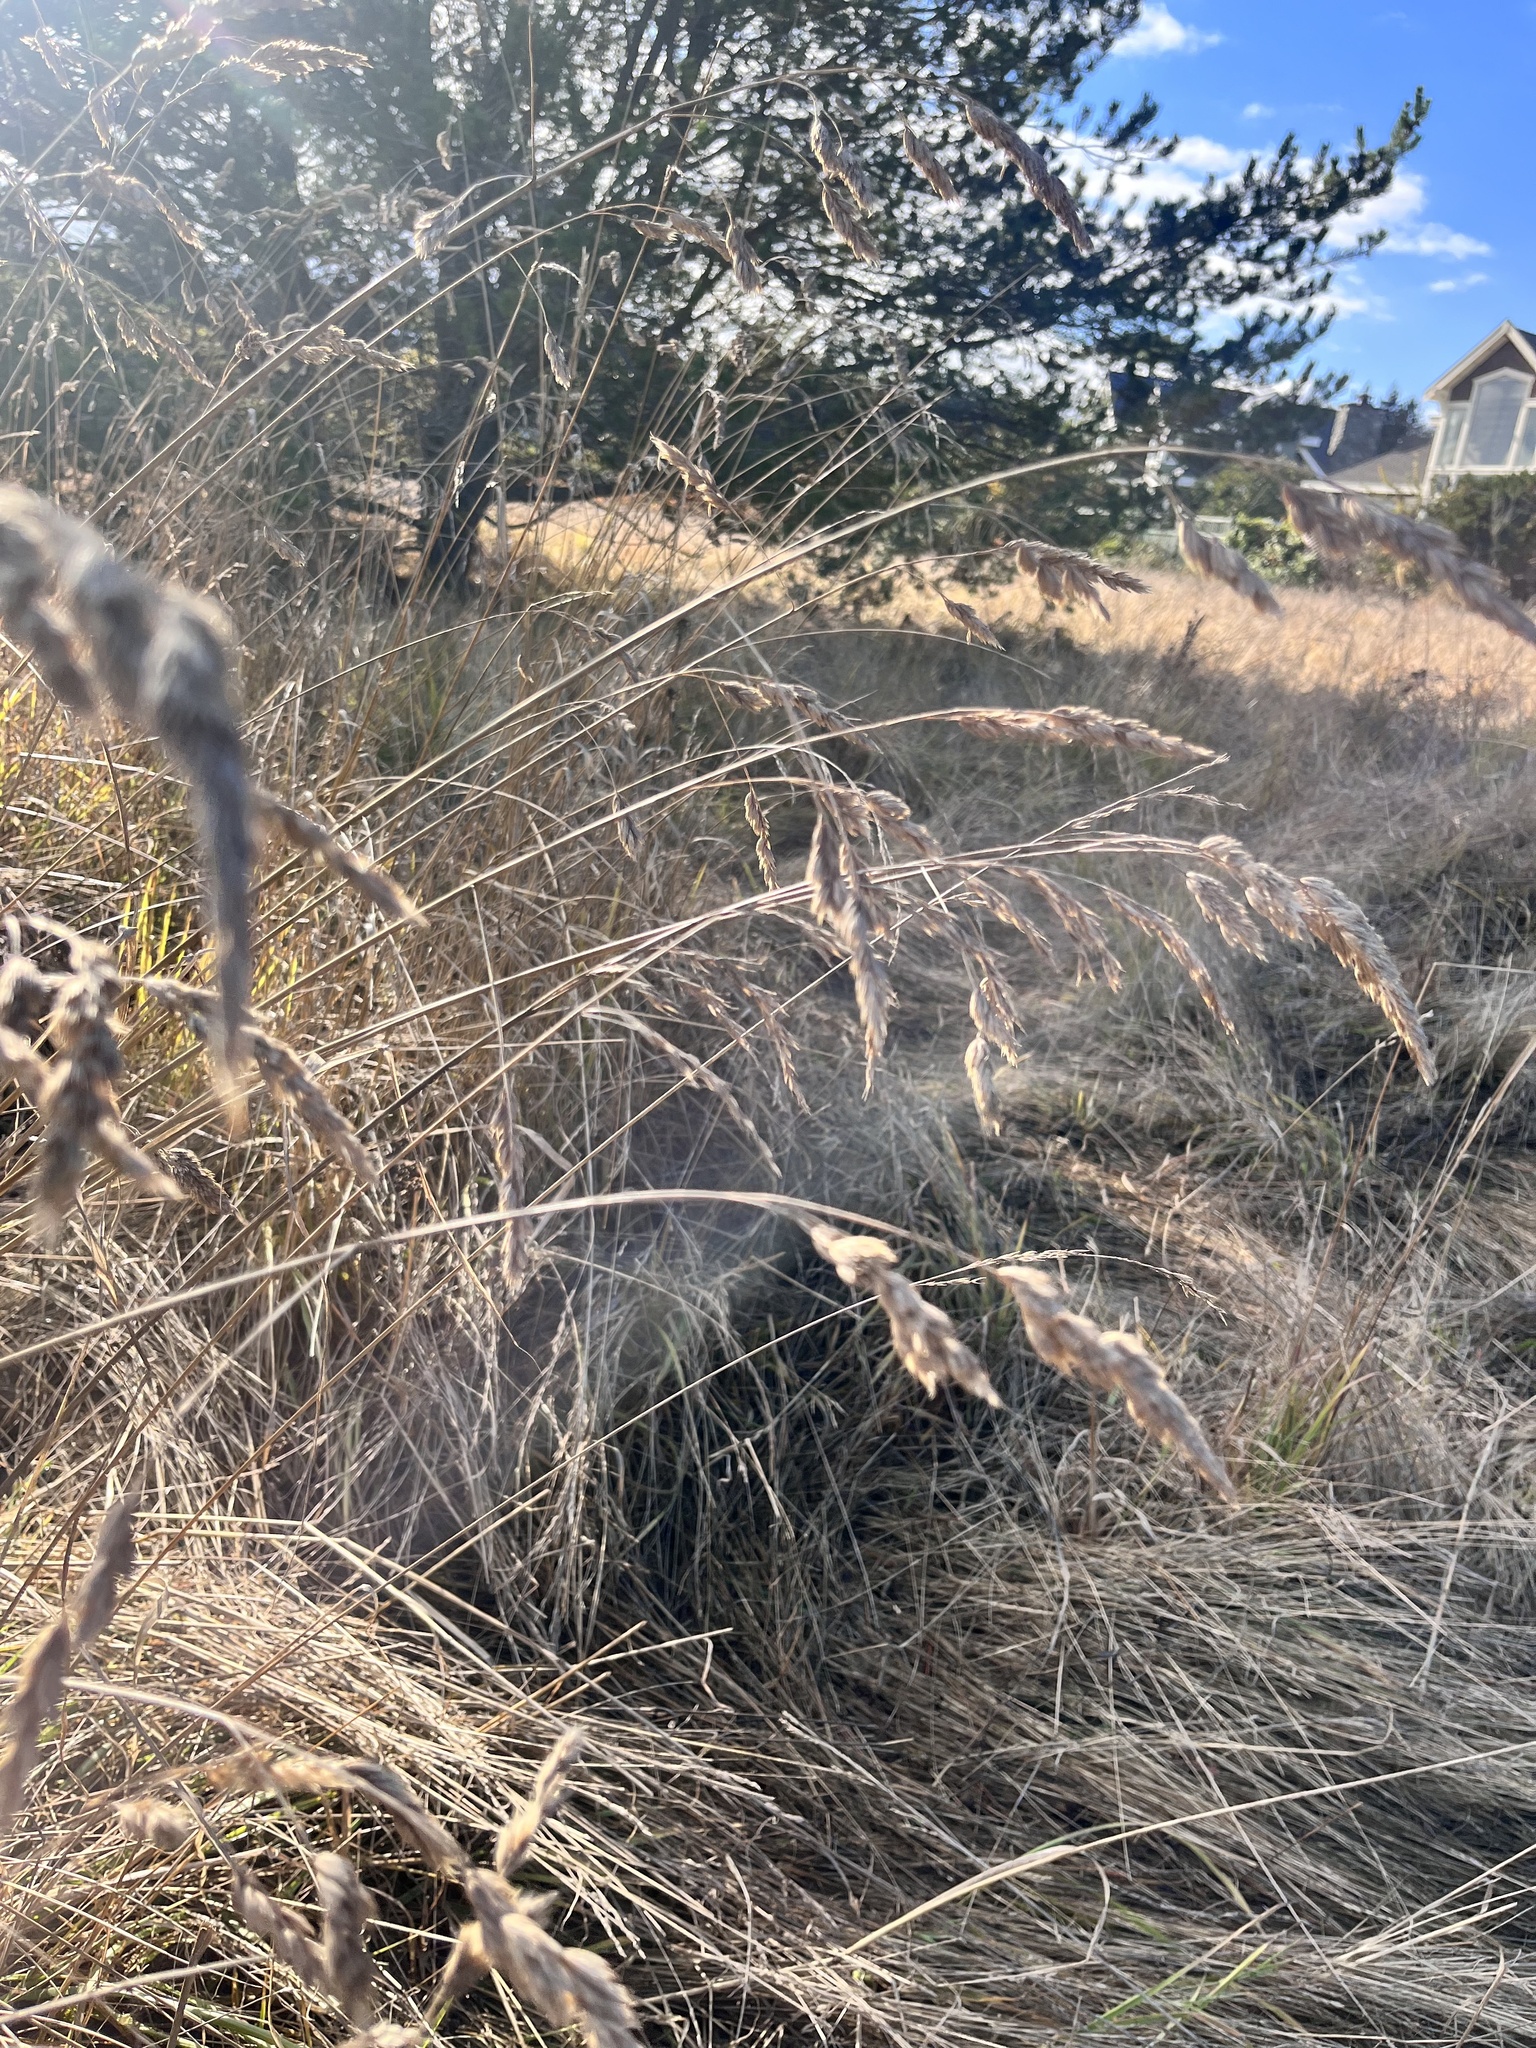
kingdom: Plantae
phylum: Tracheophyta
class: Liliopsida
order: Poales
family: Poaceae
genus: Dactylis
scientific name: Dactylis glomerata
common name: Orchardgrass
